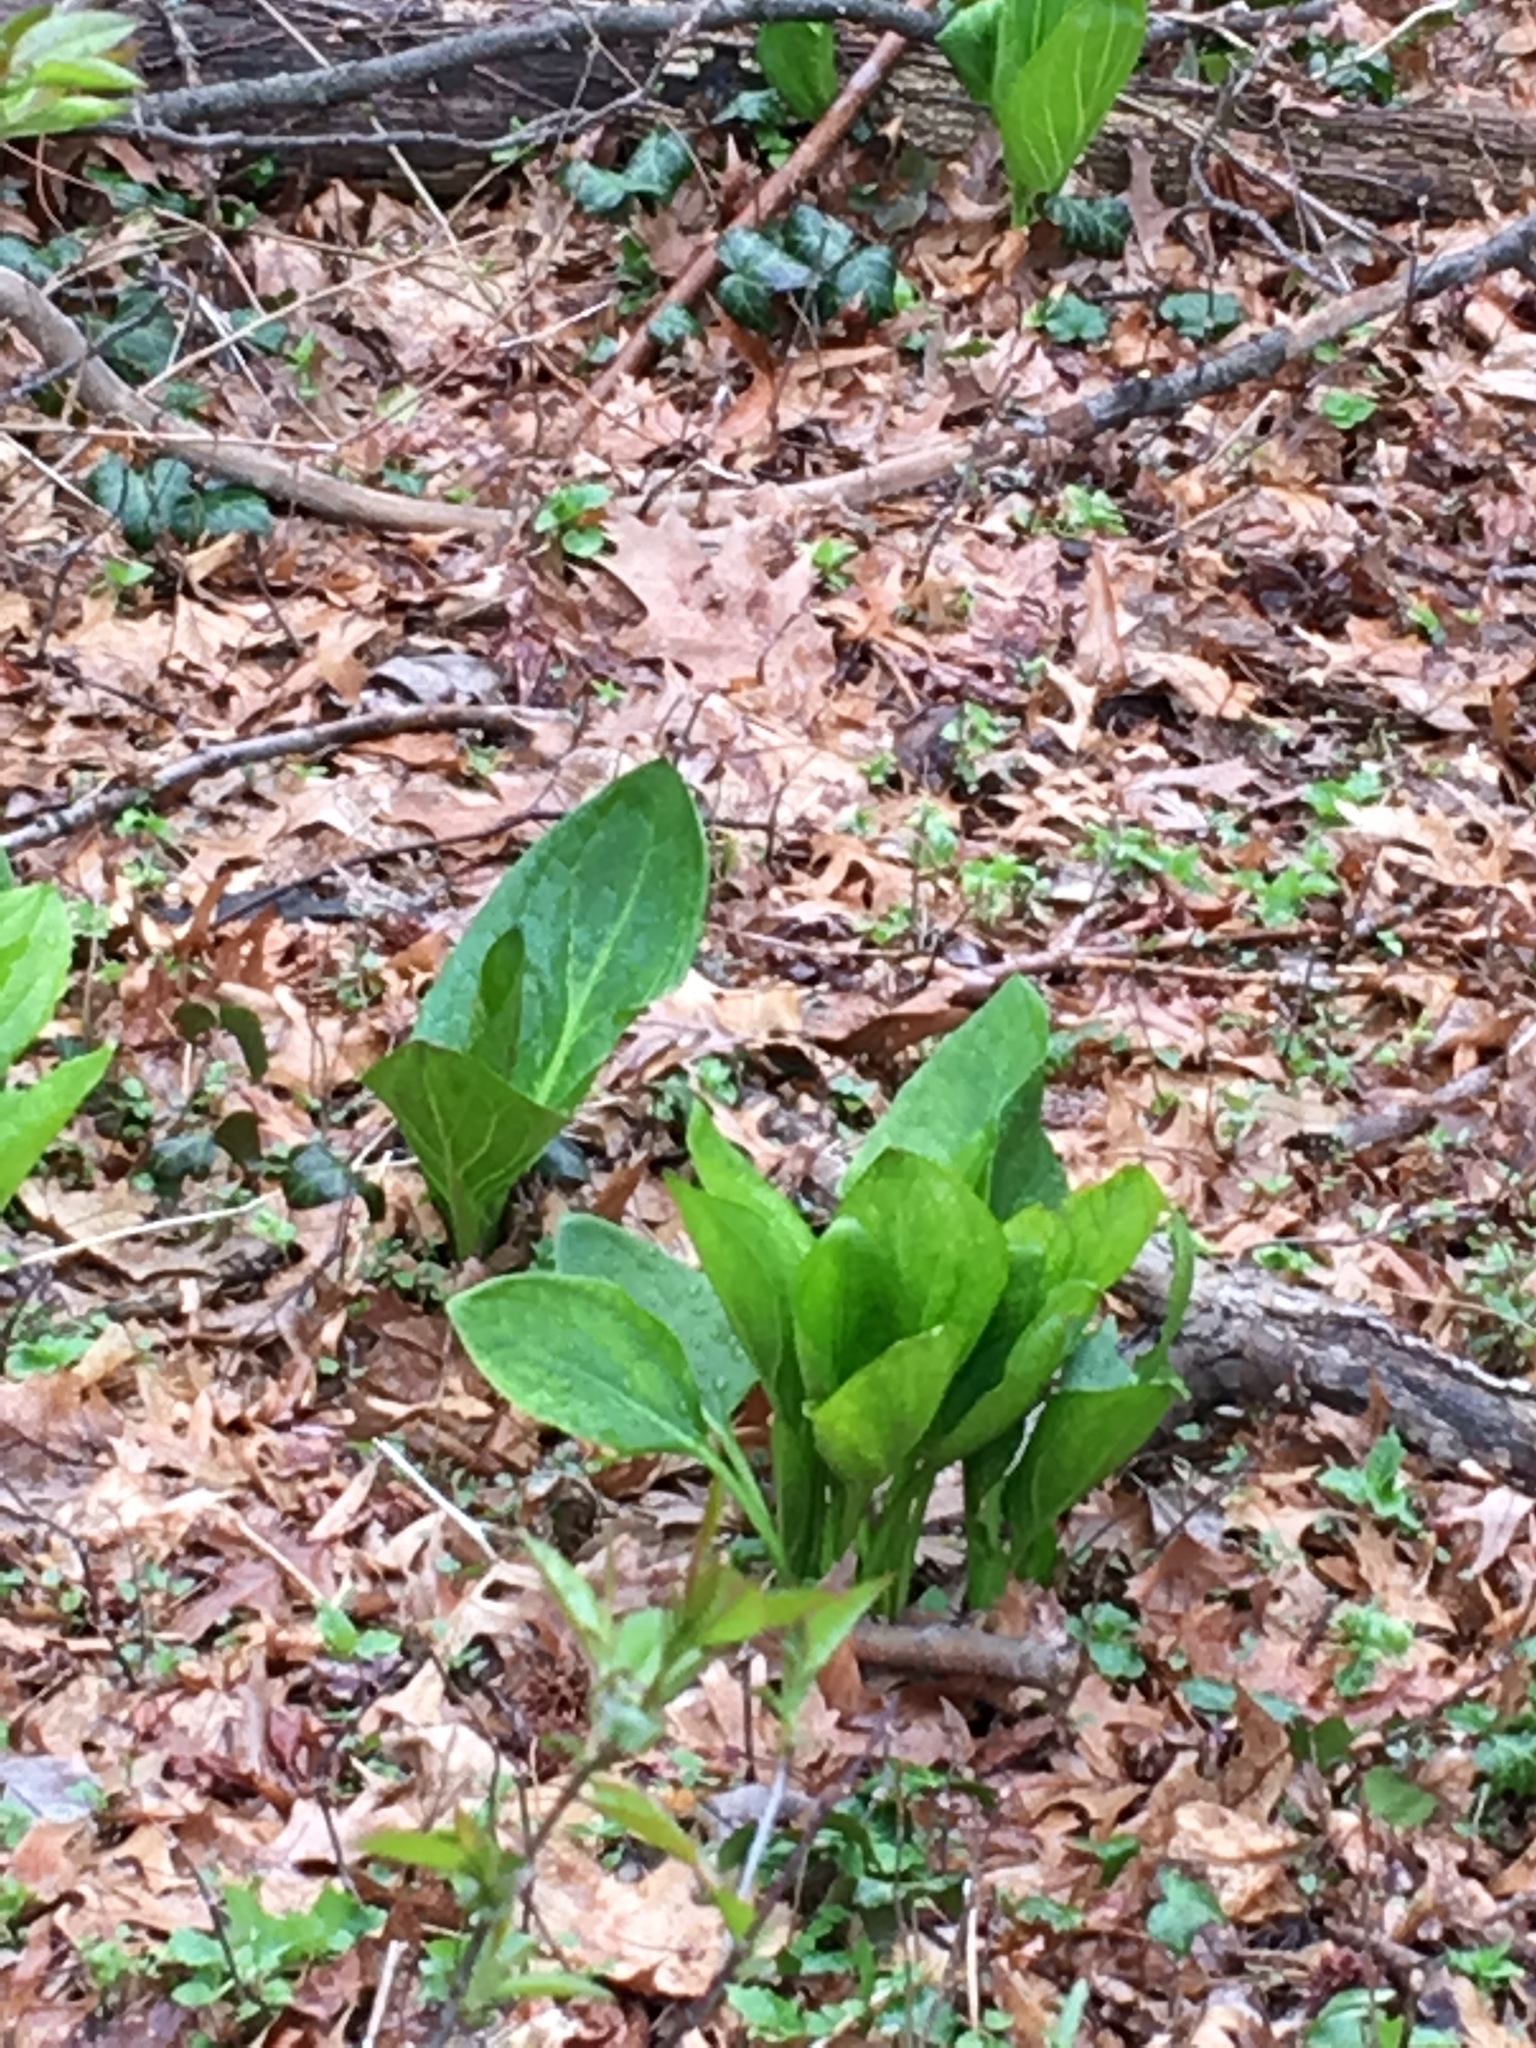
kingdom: Plantae
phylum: Tracheophyta
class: Liliopsida
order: Alismatales
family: Araceae
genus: Symplocarpus
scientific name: Symplocarpus foetidus
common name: Eastern skunk cabbage
